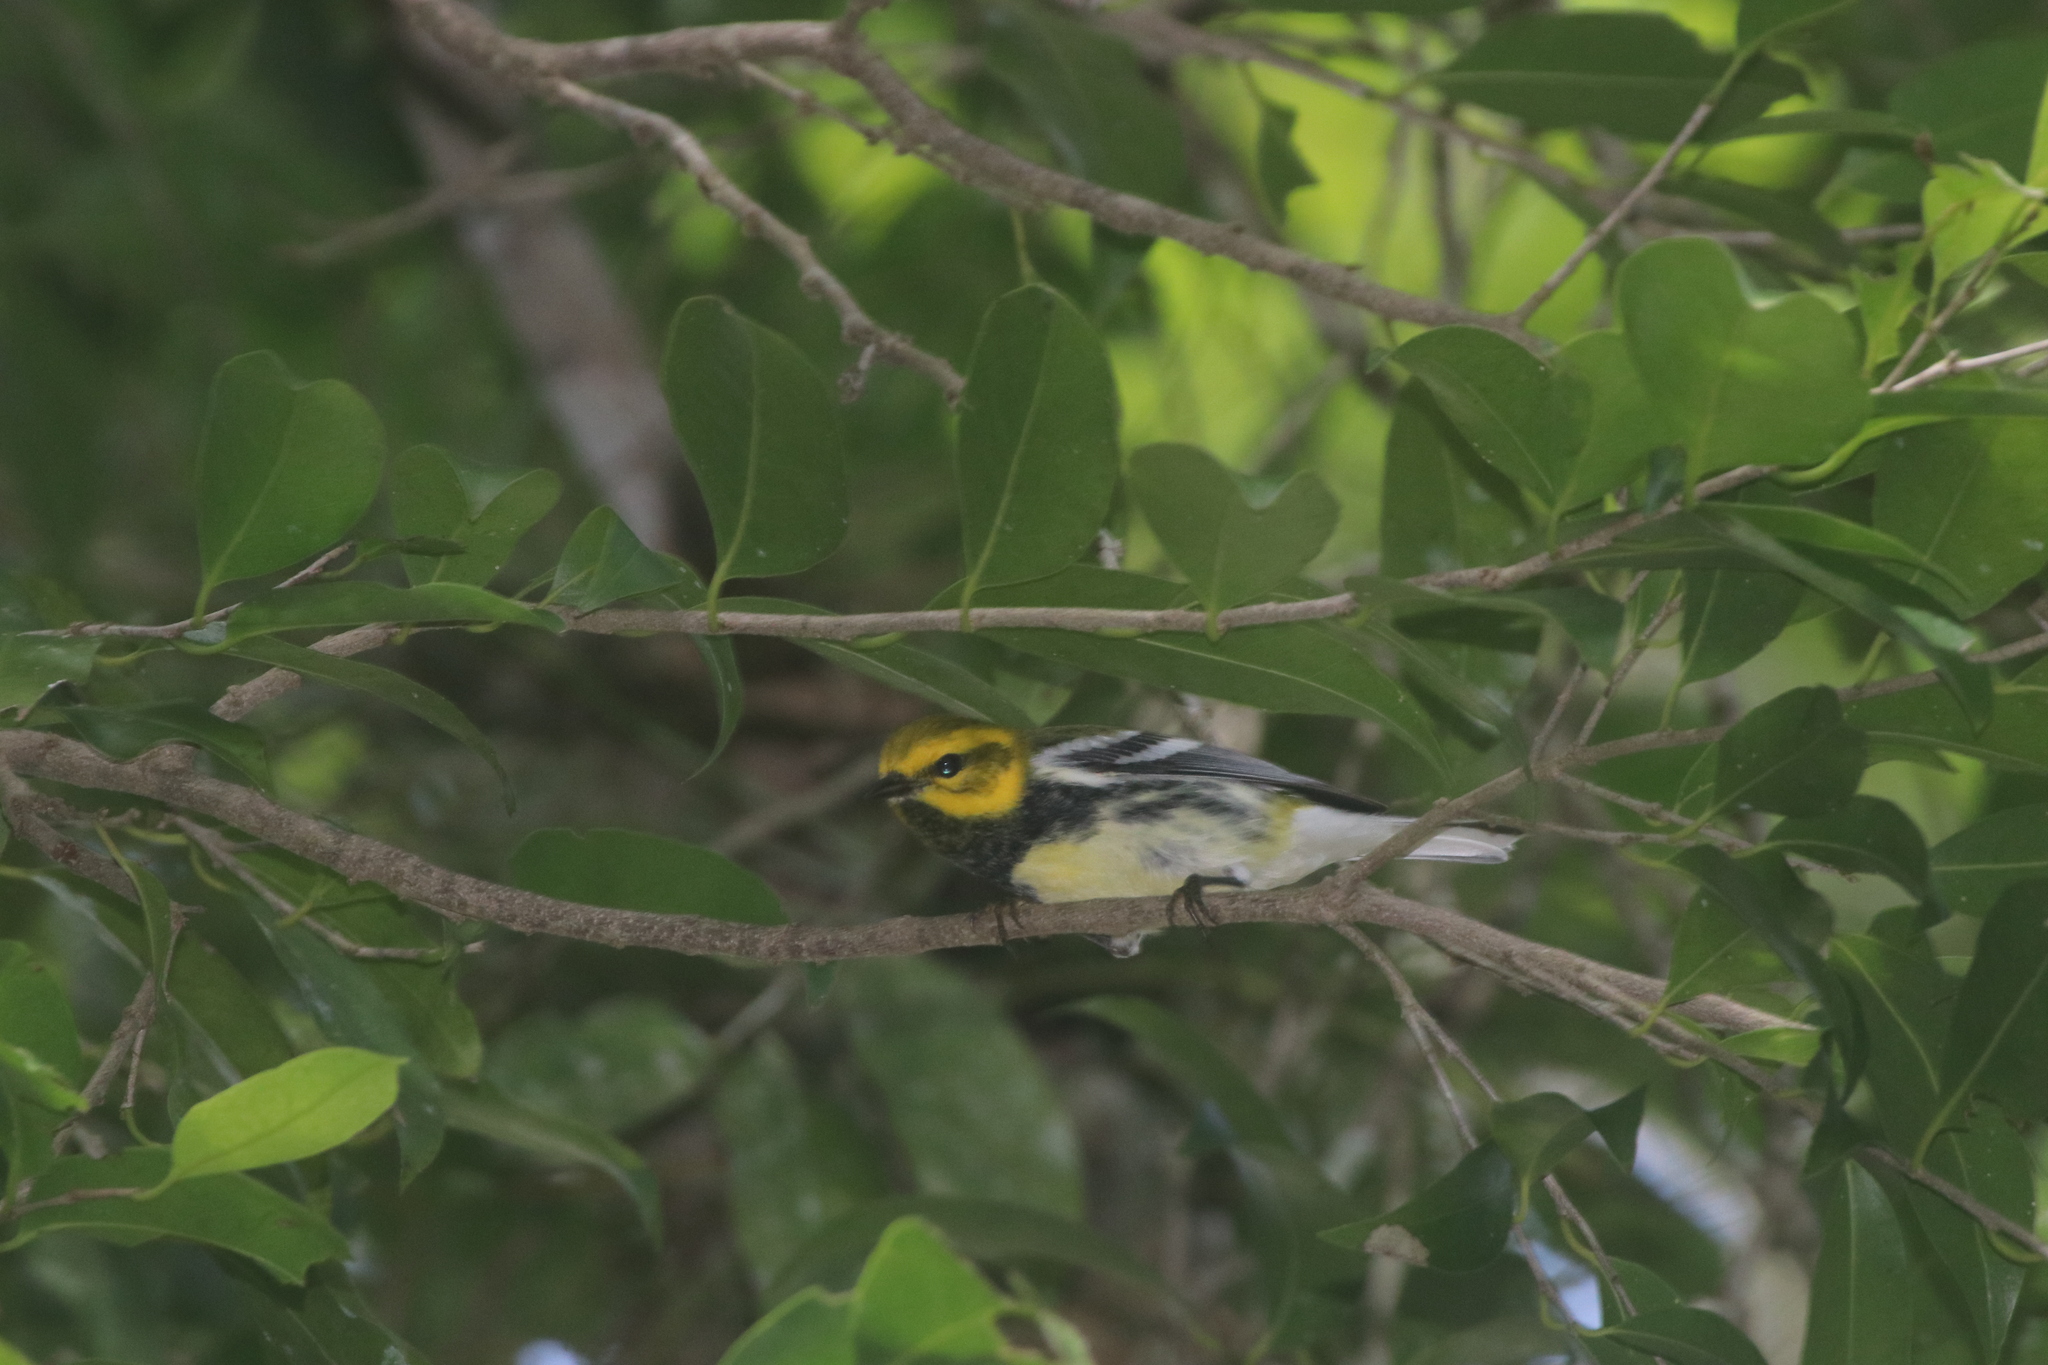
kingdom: Animalia
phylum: Chordata
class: Aves
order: Passeriformes
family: Parulidae
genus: Setophaga
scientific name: Setophaga virens
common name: Black-throated green warbler
